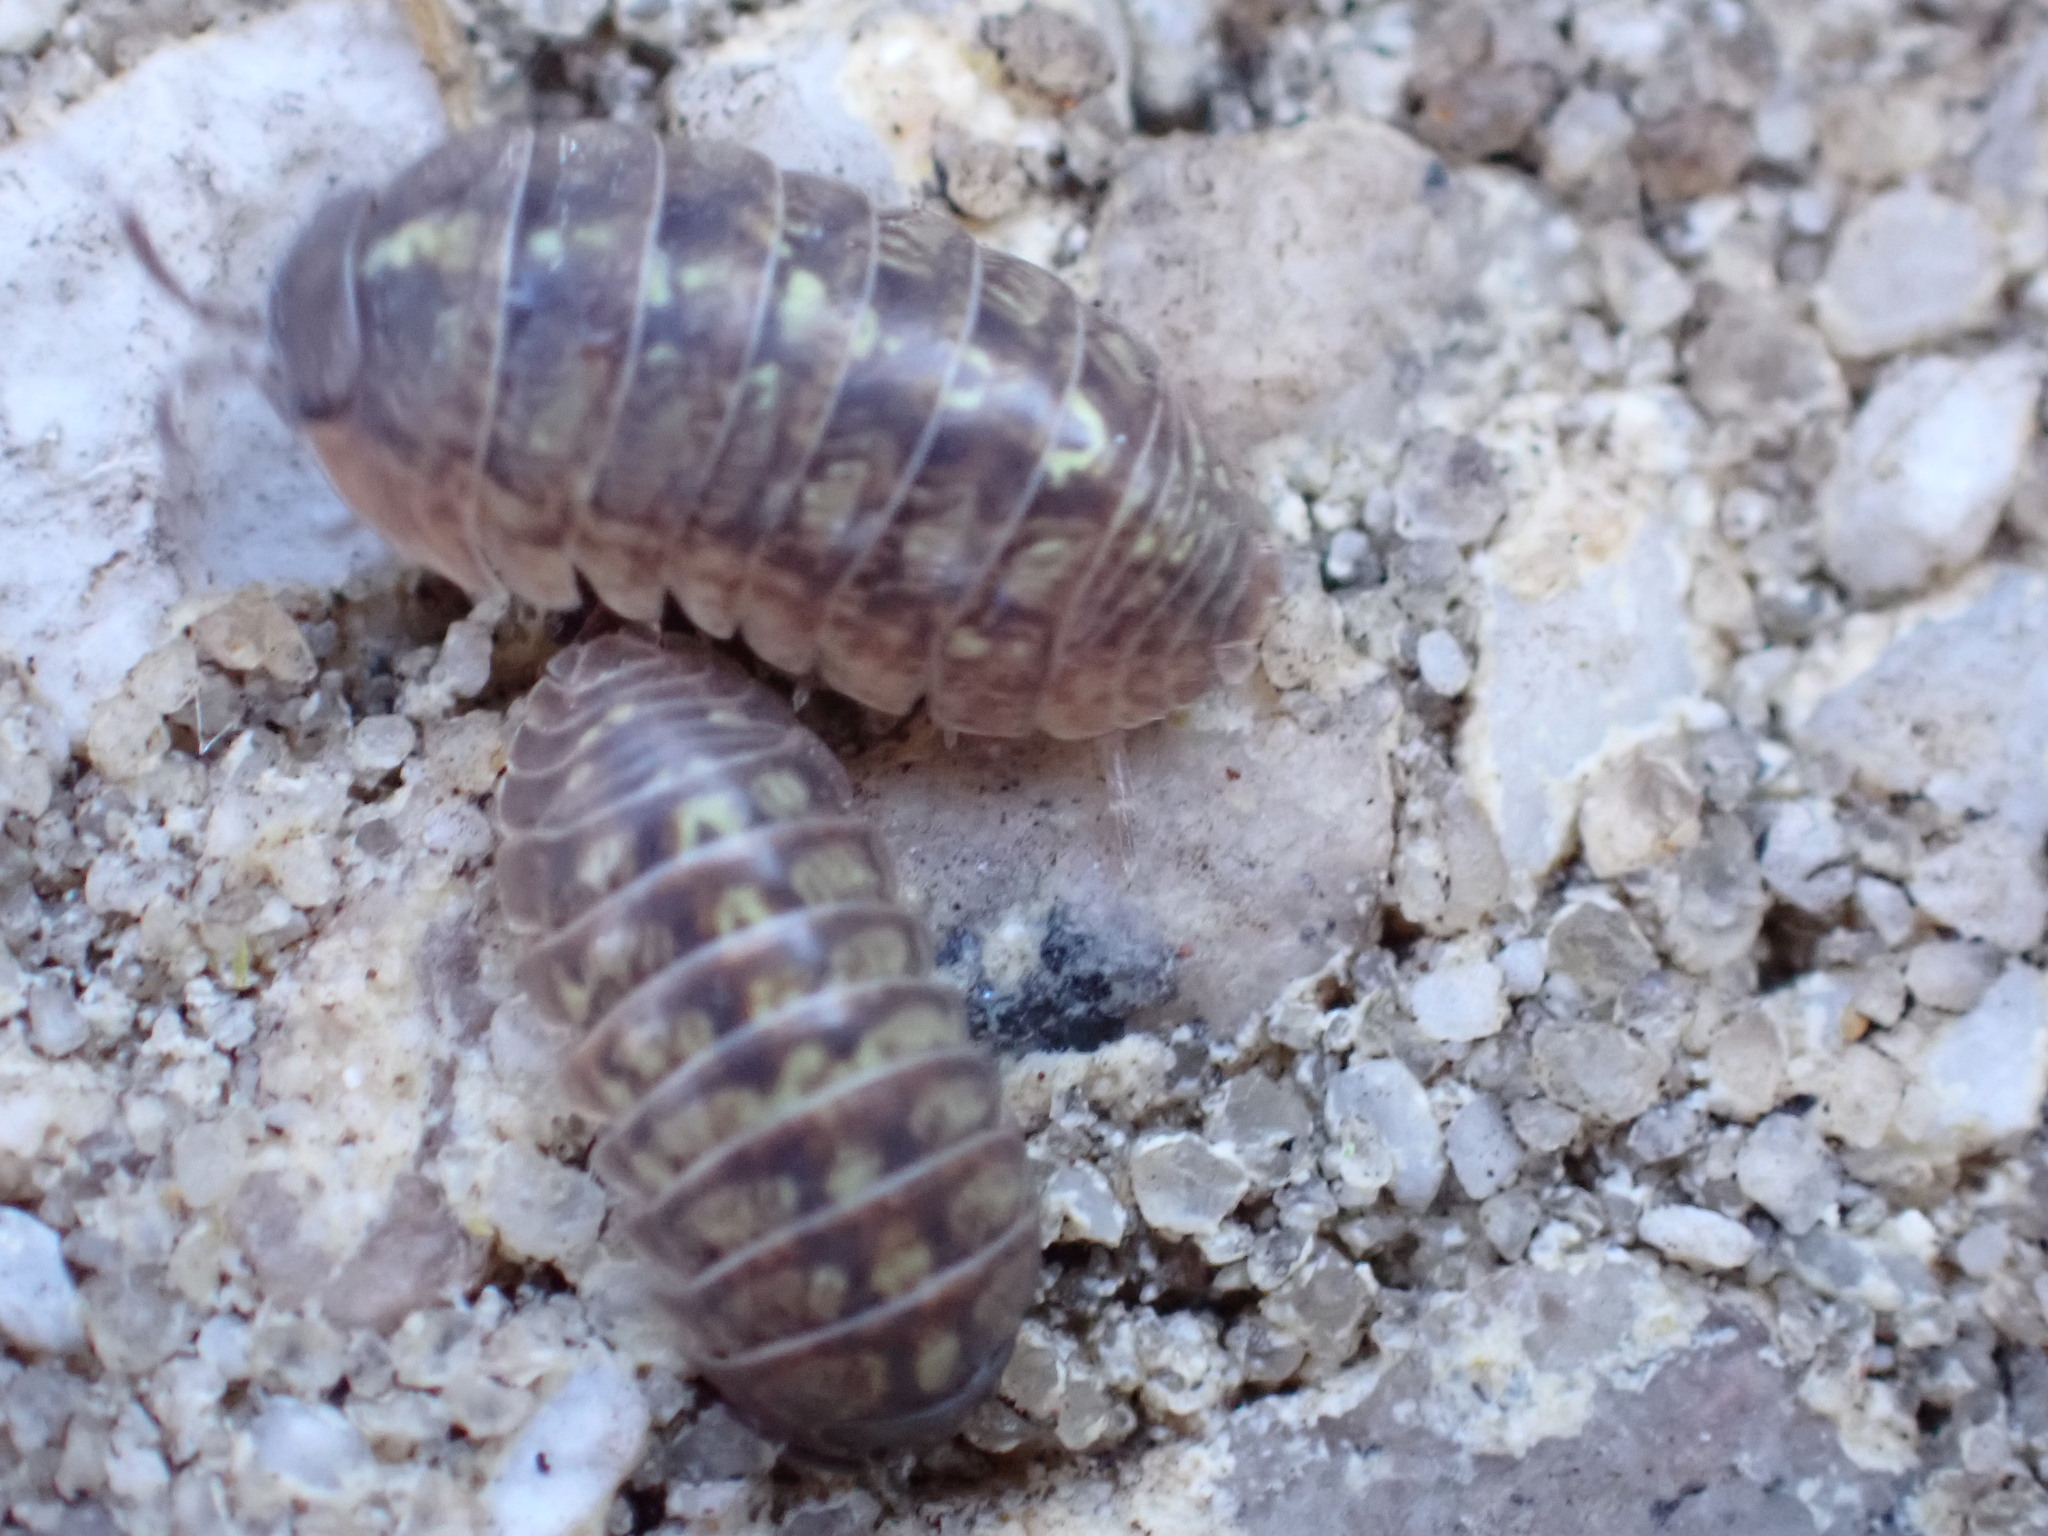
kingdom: Animalia
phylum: Arthropoda
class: Malacostraca
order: Isopoda
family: Armadillidiidae
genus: Armadillidium
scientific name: Armadillidium vulgare
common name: Common pill woodlouse
